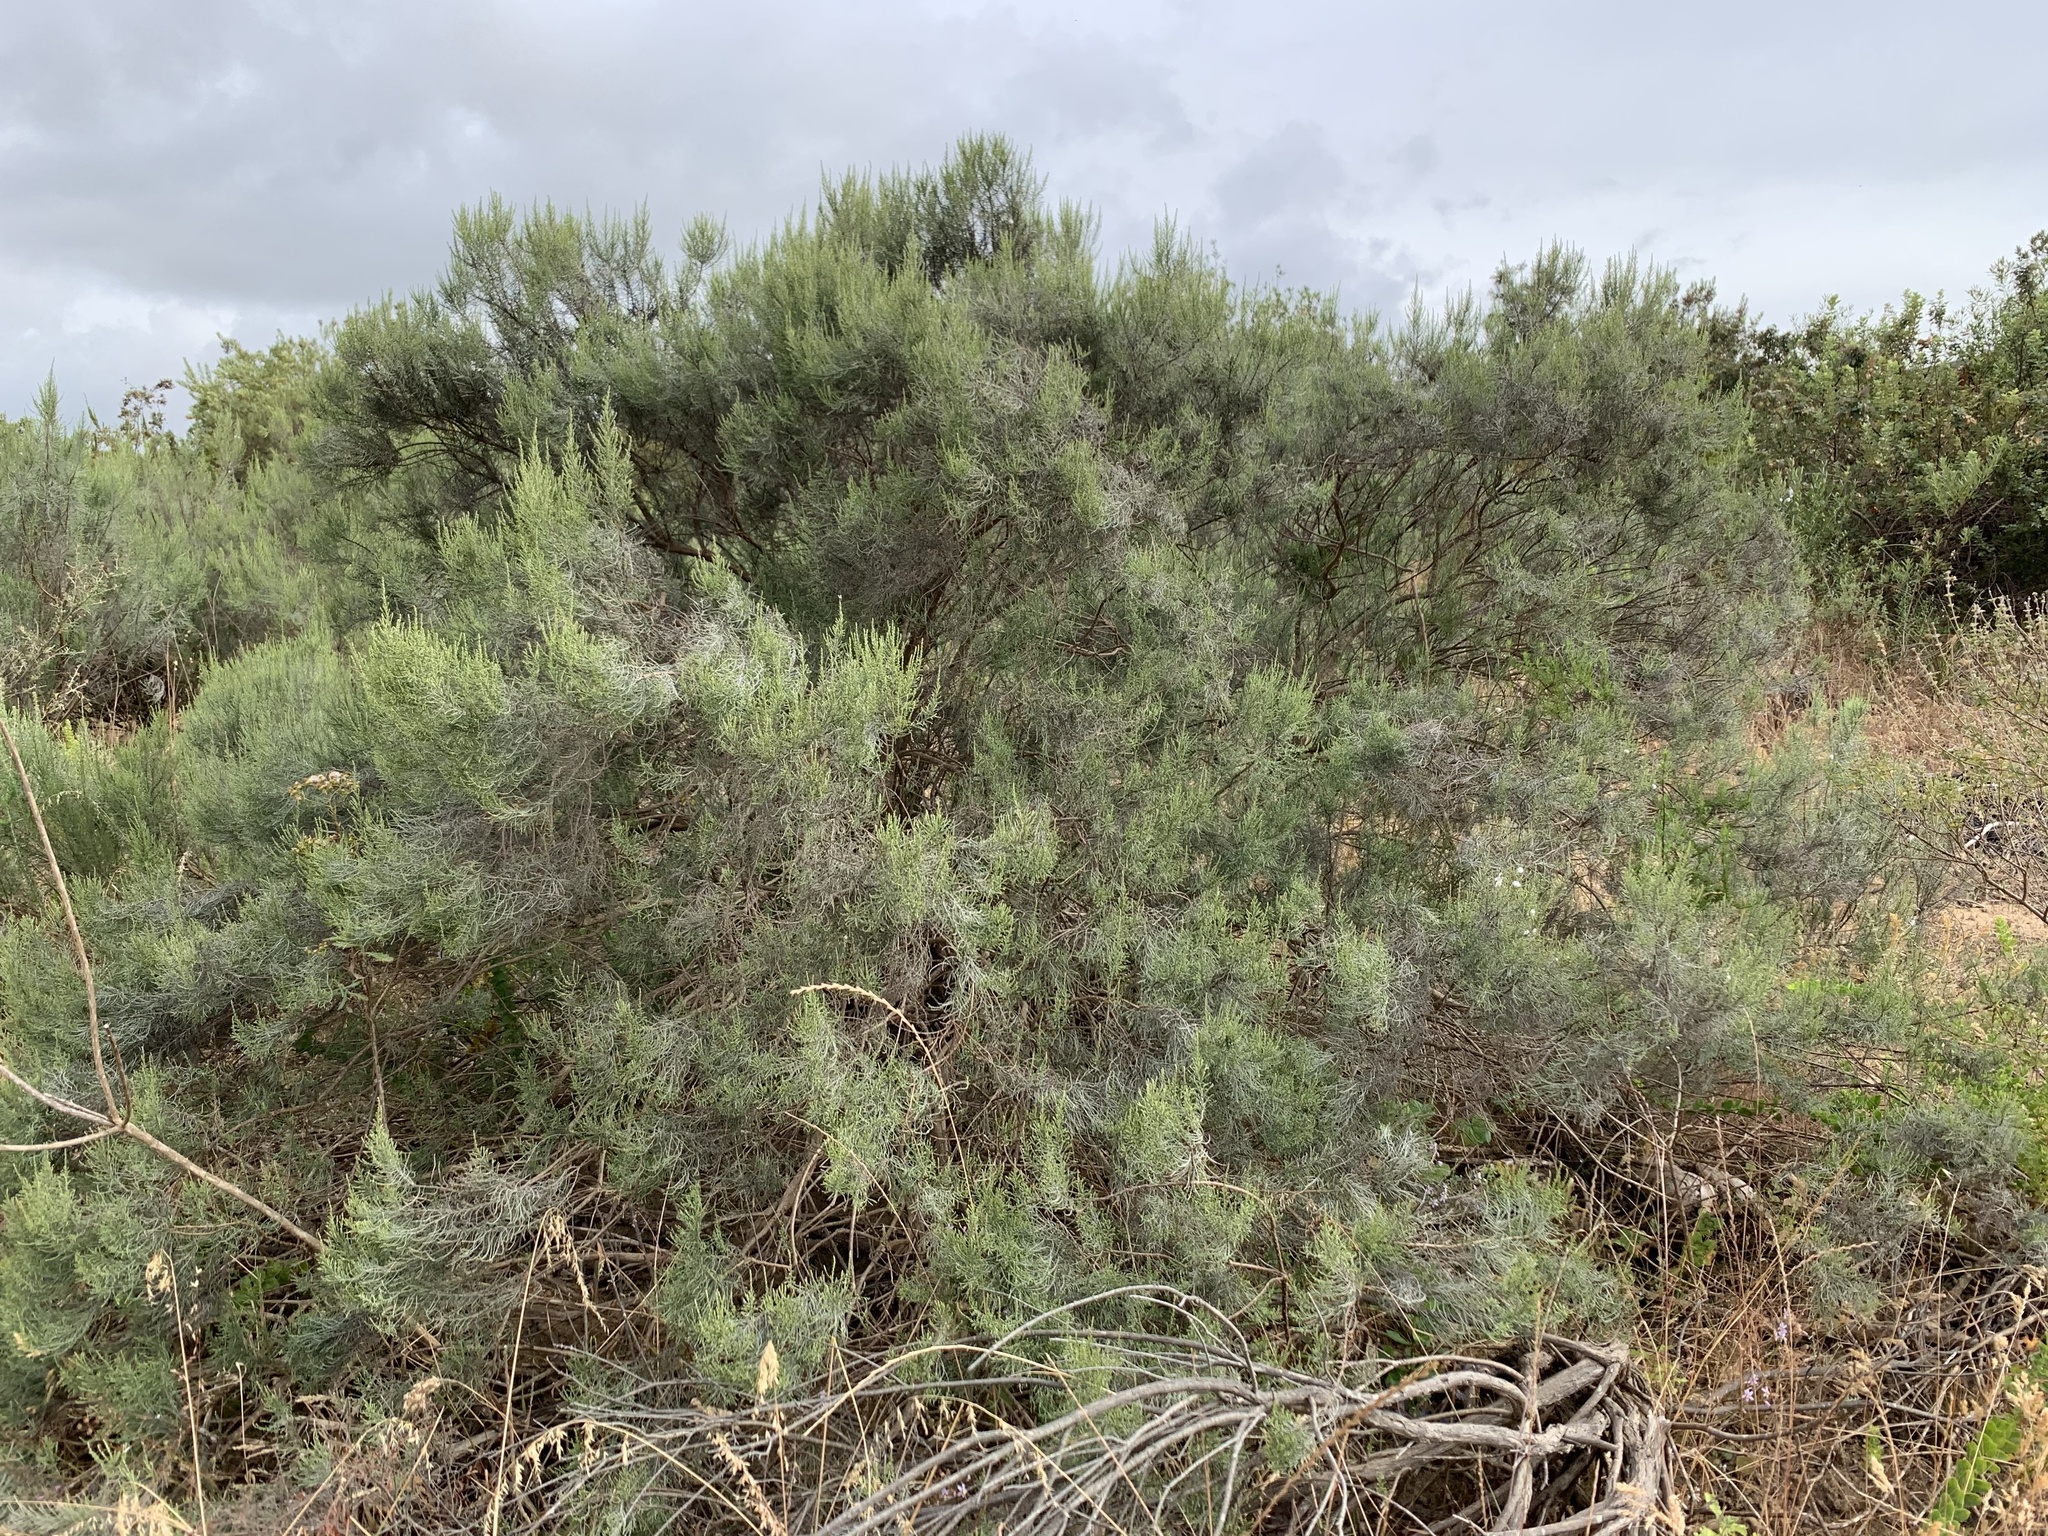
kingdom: Plantae
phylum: Tracheophyta
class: Magnoliopsida
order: Asterales
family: Asteraceae
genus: Dicerothamnus
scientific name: Dicerothamnus rhinocerotis
